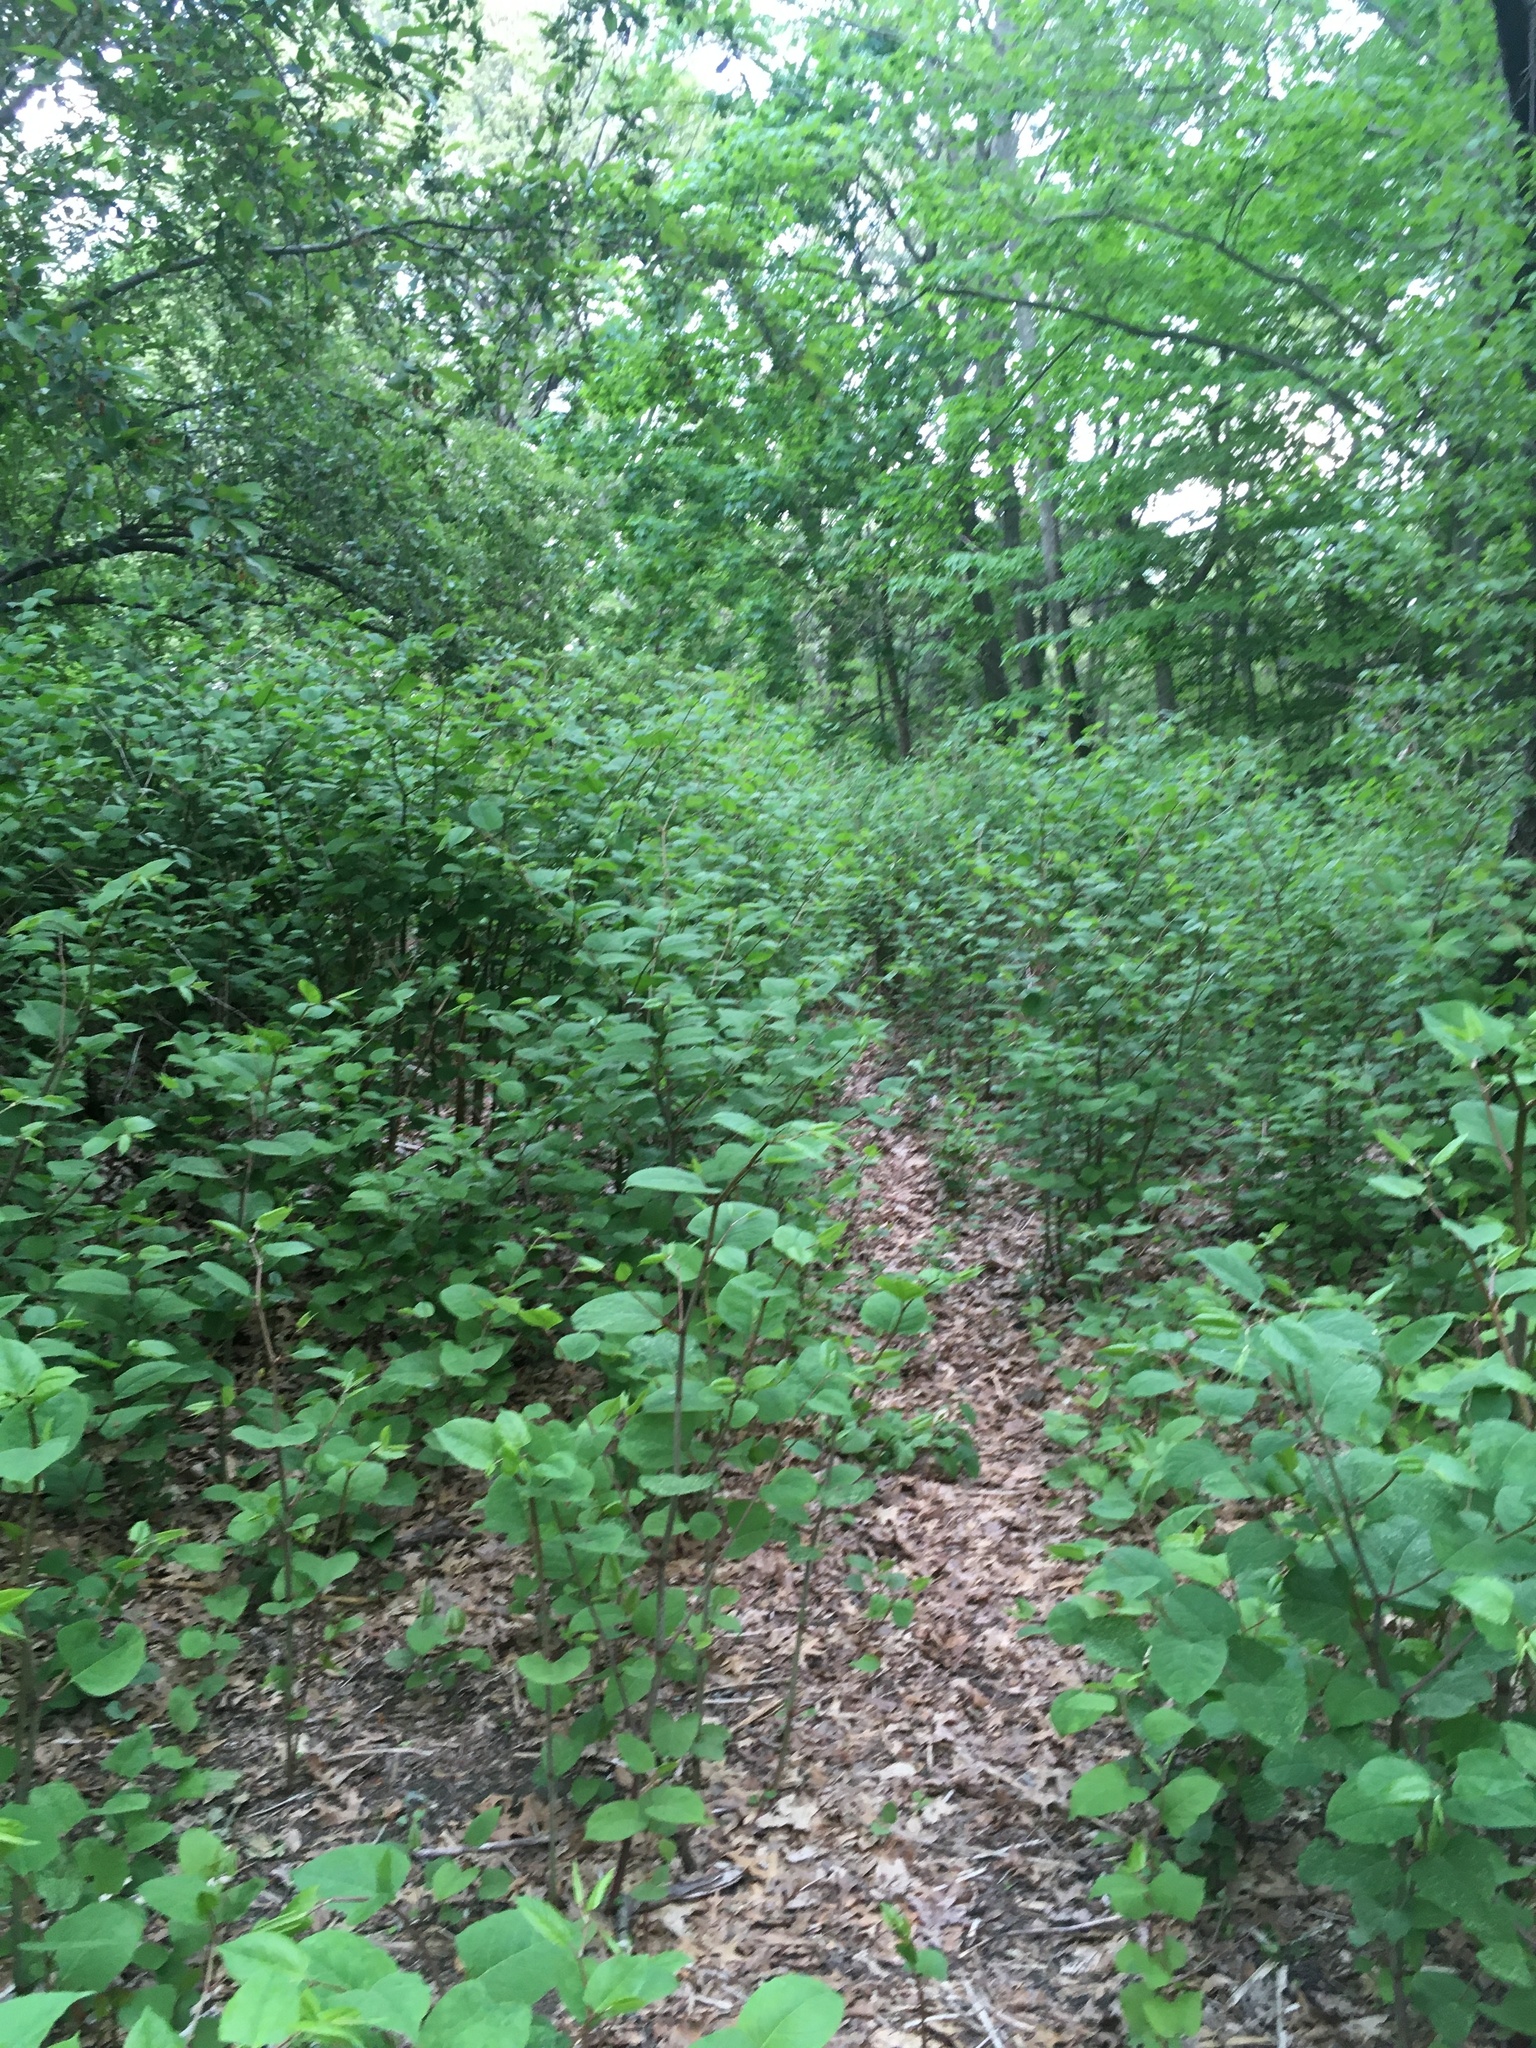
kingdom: Plantae
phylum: Tracheophyta
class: Magnoliopsida
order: Caryophyllales
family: Polygonaceae
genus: Reynoutria
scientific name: Reynoutria japonica
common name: Japanese knotweed
